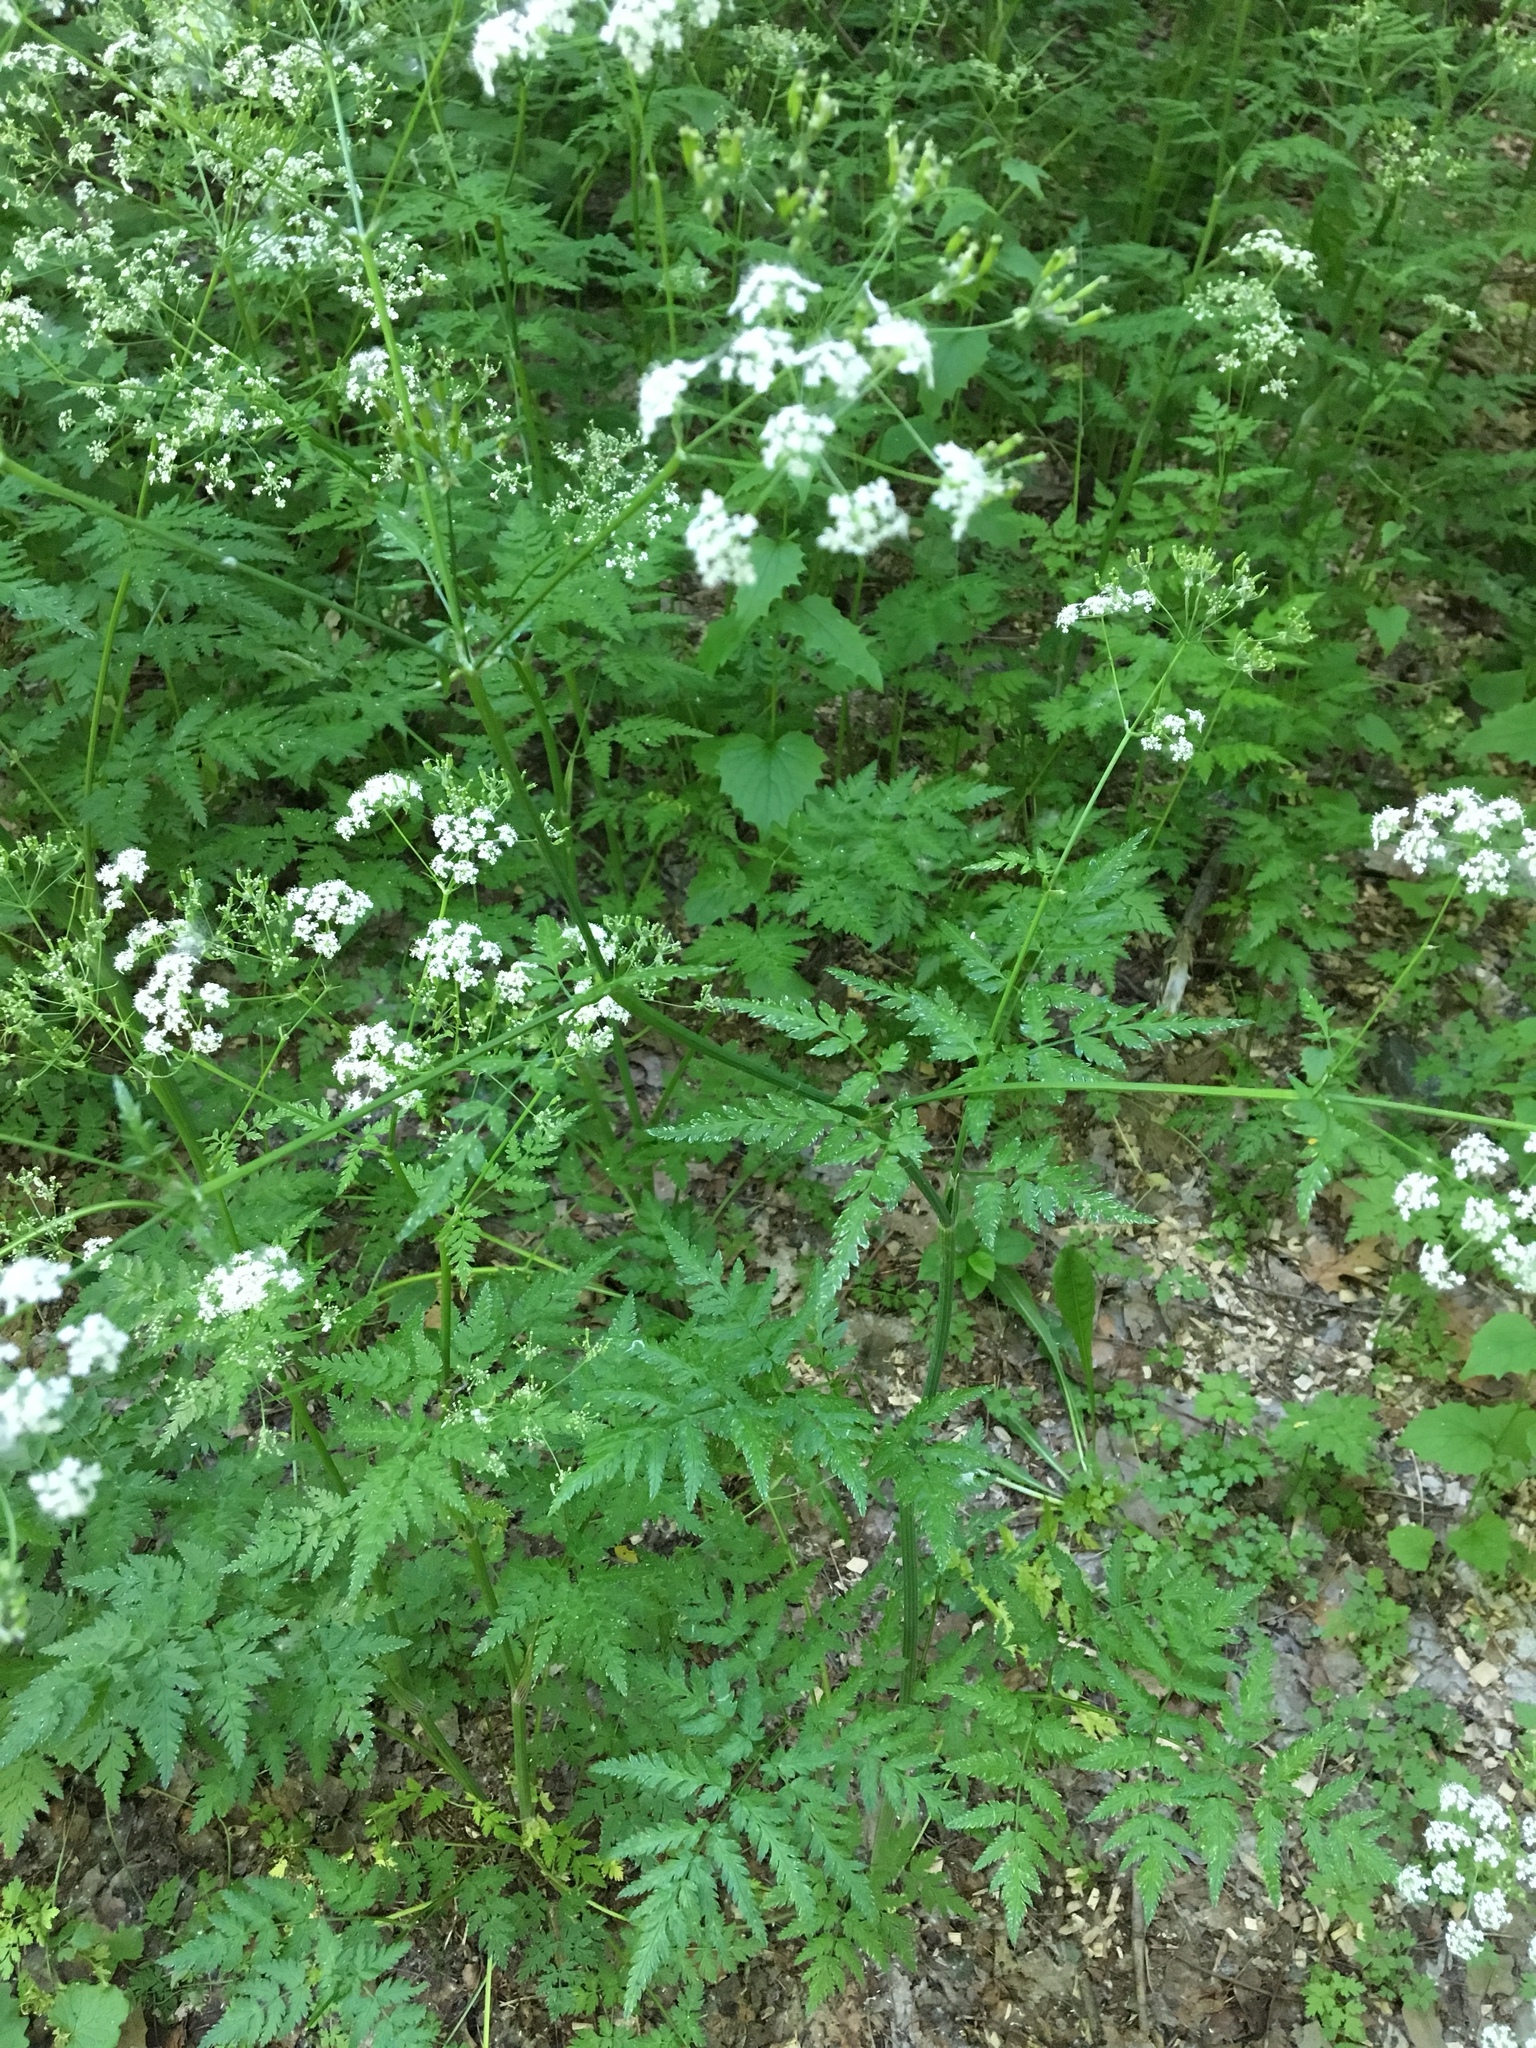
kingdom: Plantae
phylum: Tracheophyta
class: Magnoliopsida
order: Apiales
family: Apiaceae
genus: Anthriscus
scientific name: Anthriscus sylvestris
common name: Cow parsley
